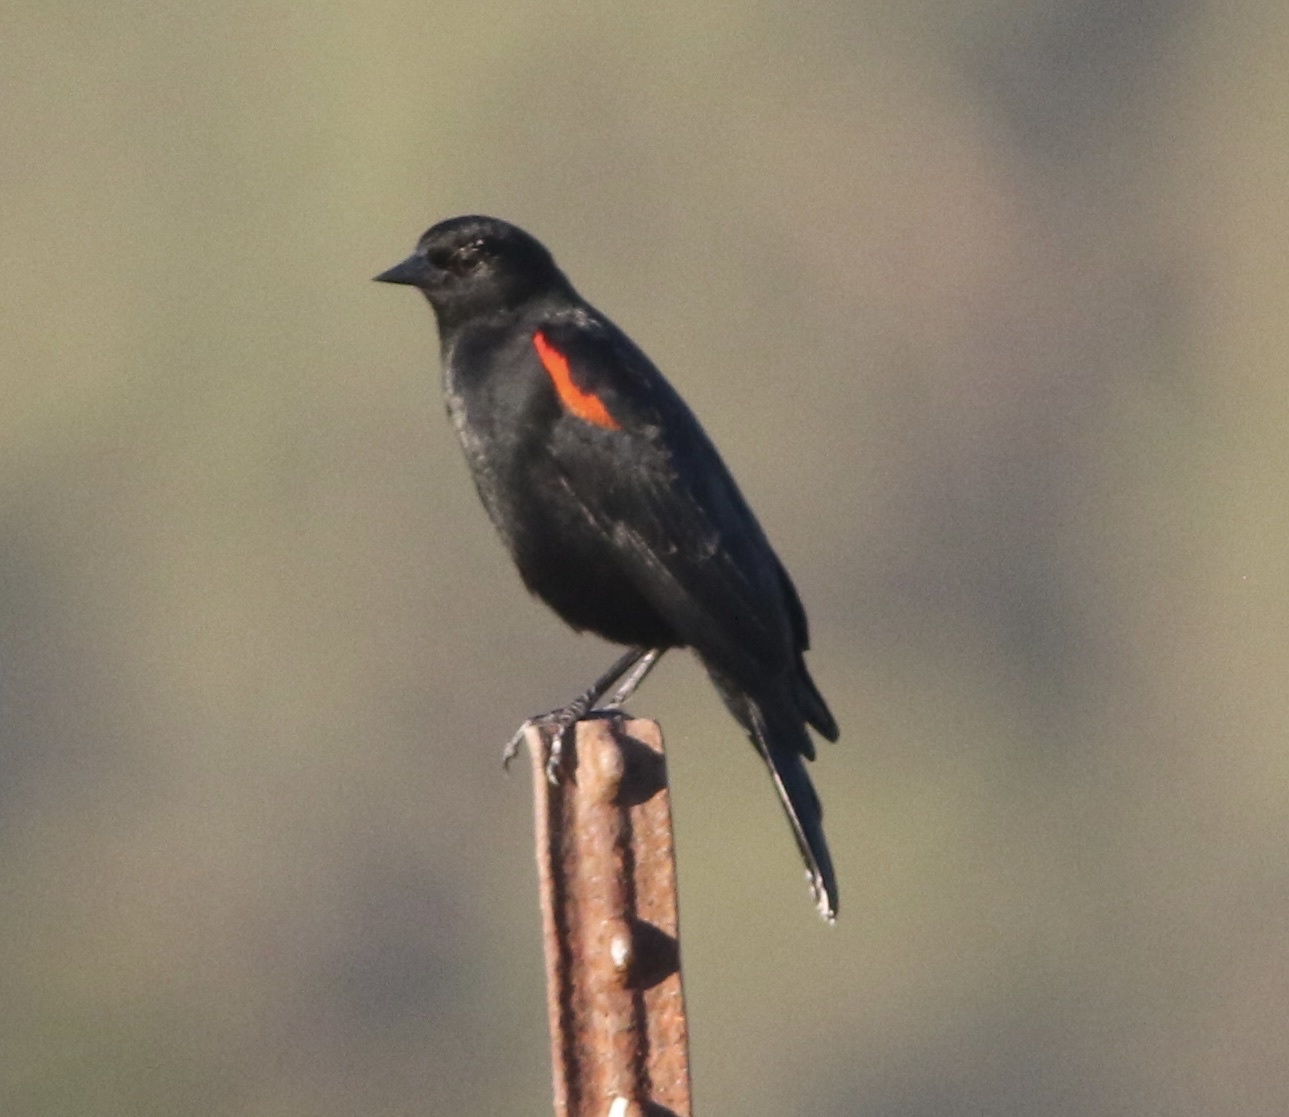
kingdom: Animalia
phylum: Chordata
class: Aves
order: Passeriformes
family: Icteridae
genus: Agelaius
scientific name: Agelaius phoeniceus
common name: Red-winged blackbird
